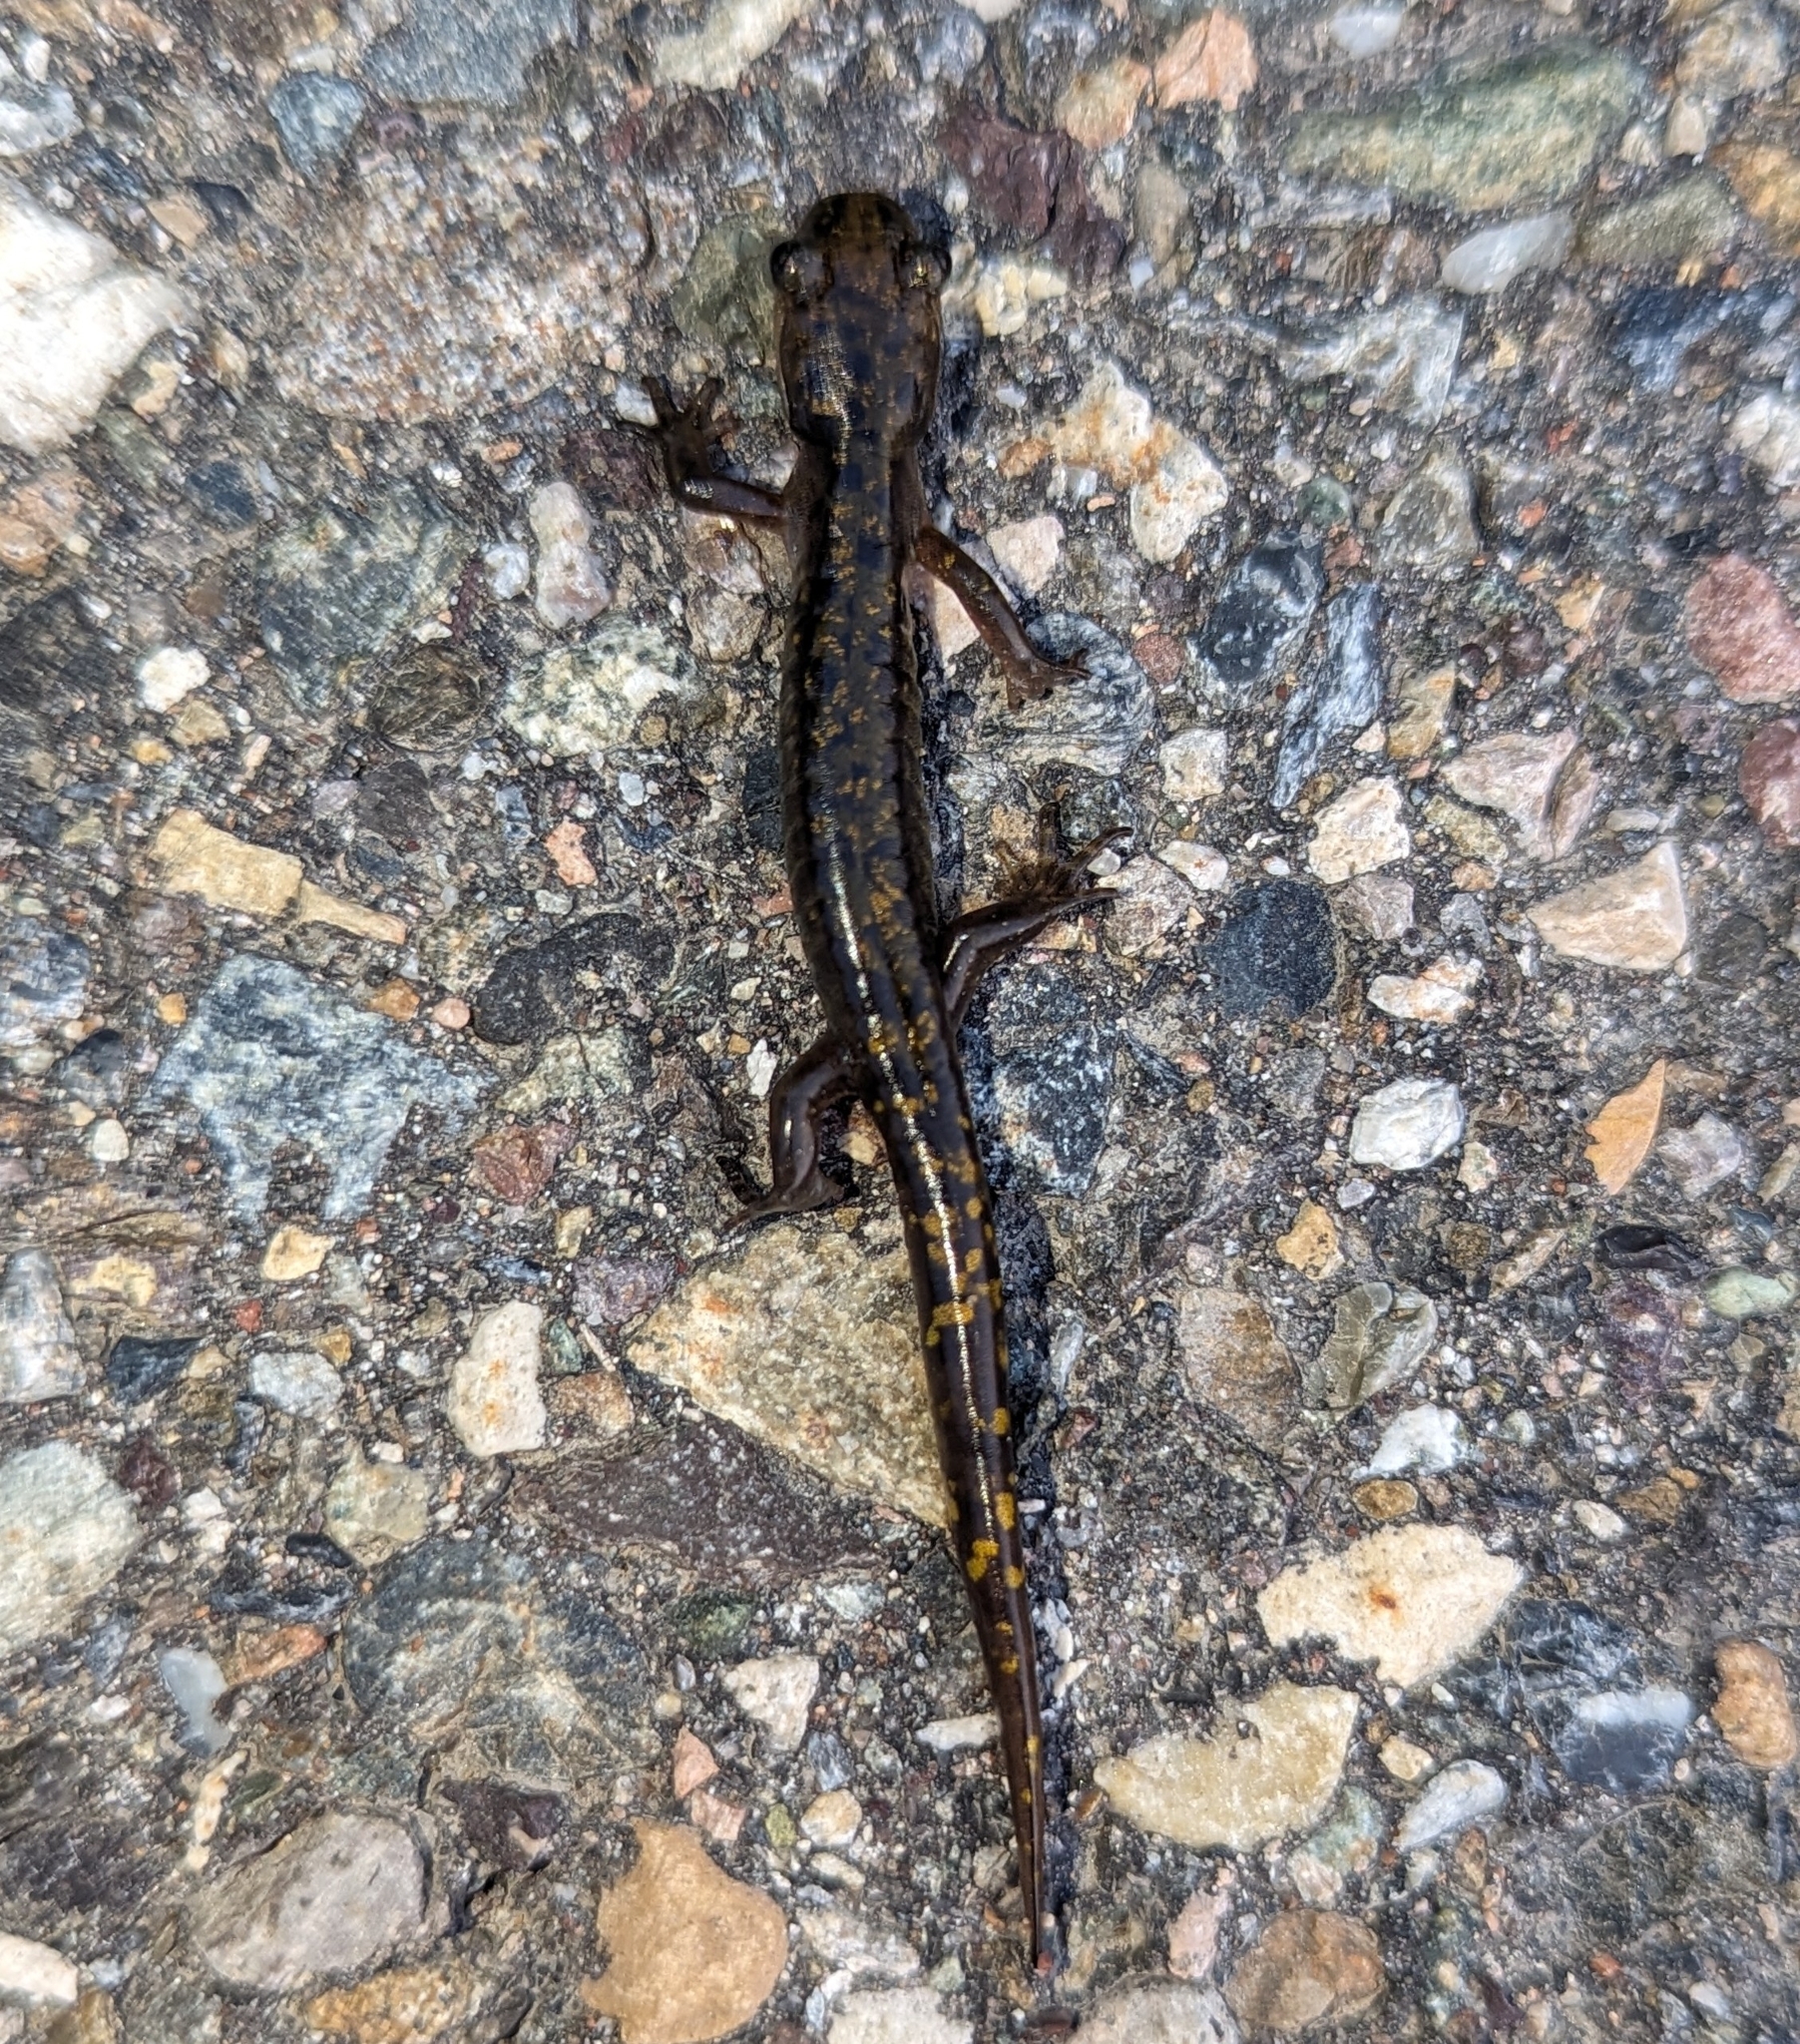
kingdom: Animalia
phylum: Chordata
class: Amphibia
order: Caudata
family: Ambystomatidae
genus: Ambystoma
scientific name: Ambystoma macrodactylum
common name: Long-toed salamander
